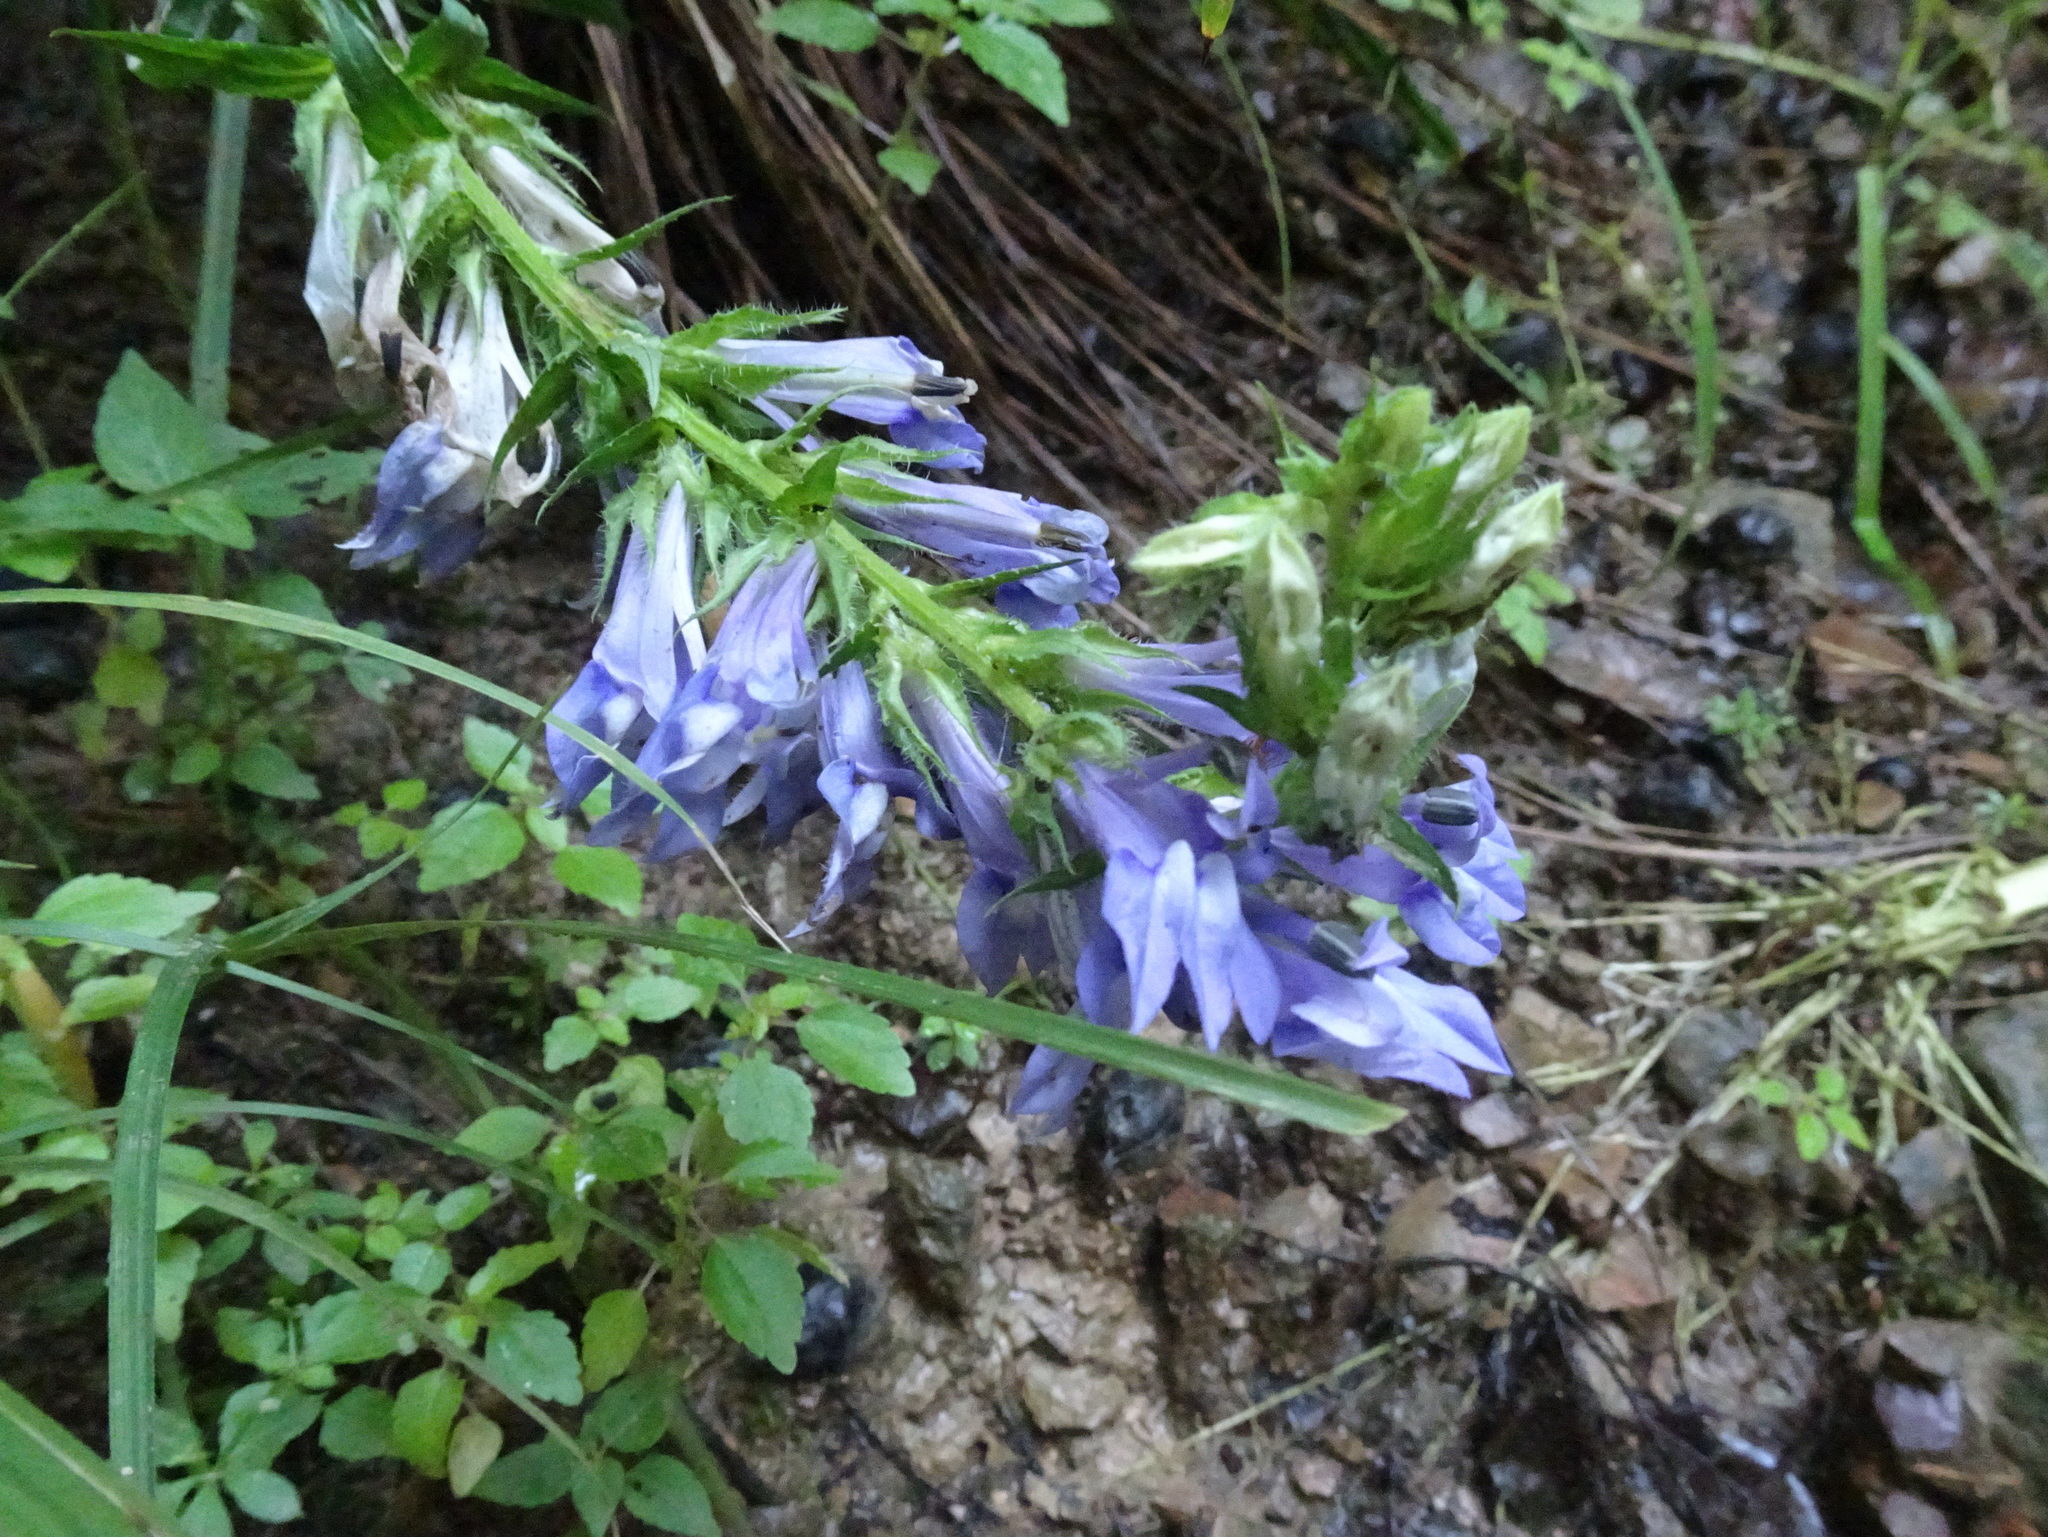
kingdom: Plantae
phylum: Tracheophyta
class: Magnoliopsida
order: Asterales
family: Campanulaceae
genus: Lobelia
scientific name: Lobelia siphilitica
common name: Great lobelia
